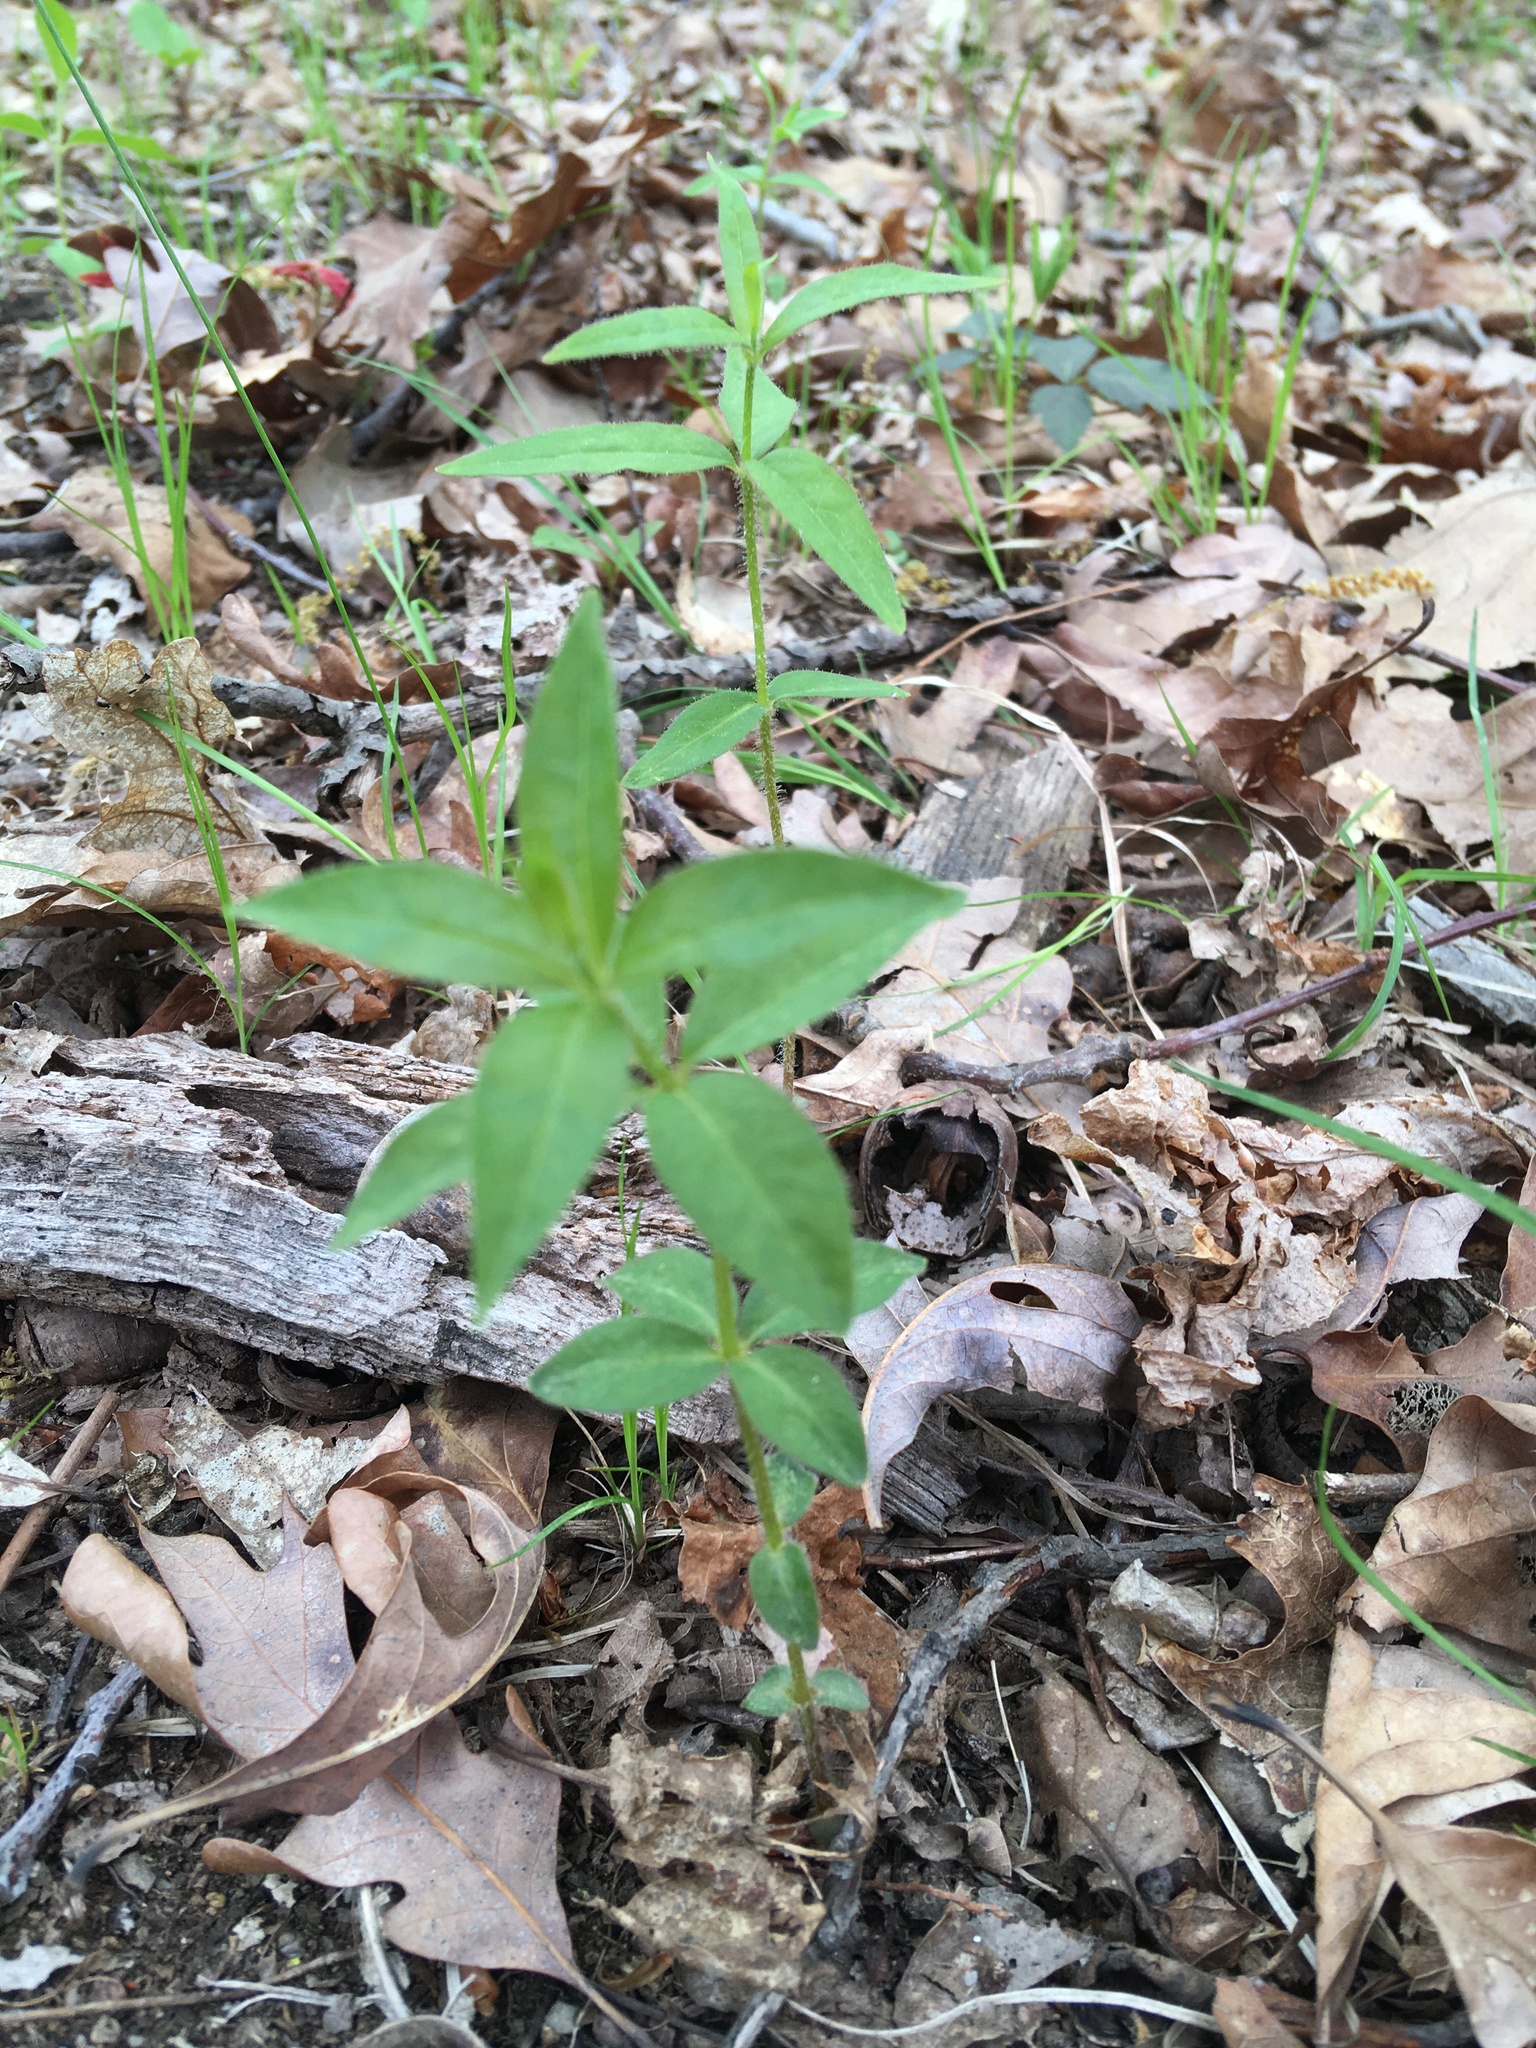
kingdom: Plantae
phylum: Tracheophyta
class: Magnoliopsida
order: Ericales
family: Primulaceae
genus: Lysimachia
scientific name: Lysimachia quadrifolia
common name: Whorled loosestrife
